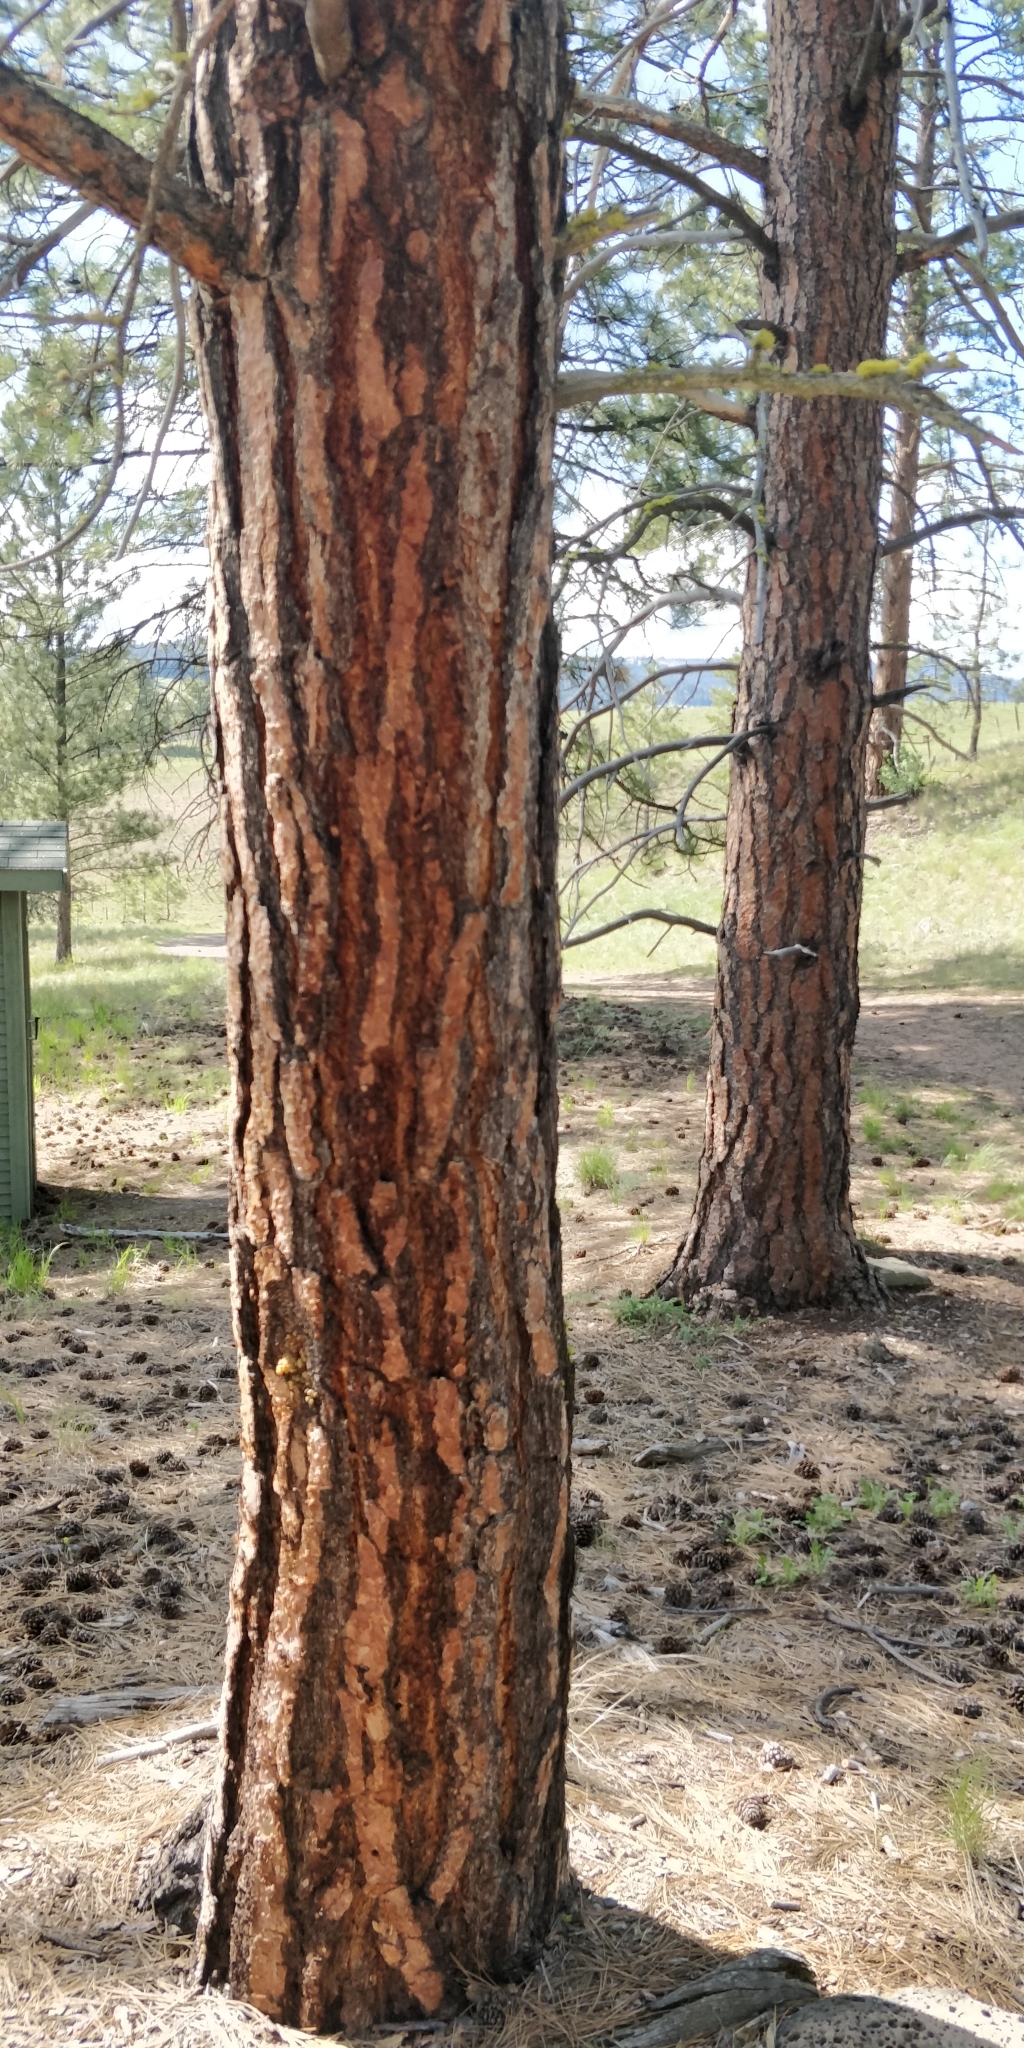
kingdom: Plantae
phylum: Tracheophyta
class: Pinopsida
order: Pinales
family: Pinaceae
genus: Pinus
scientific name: Pinus ponderosa
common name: Western yellow-pine
